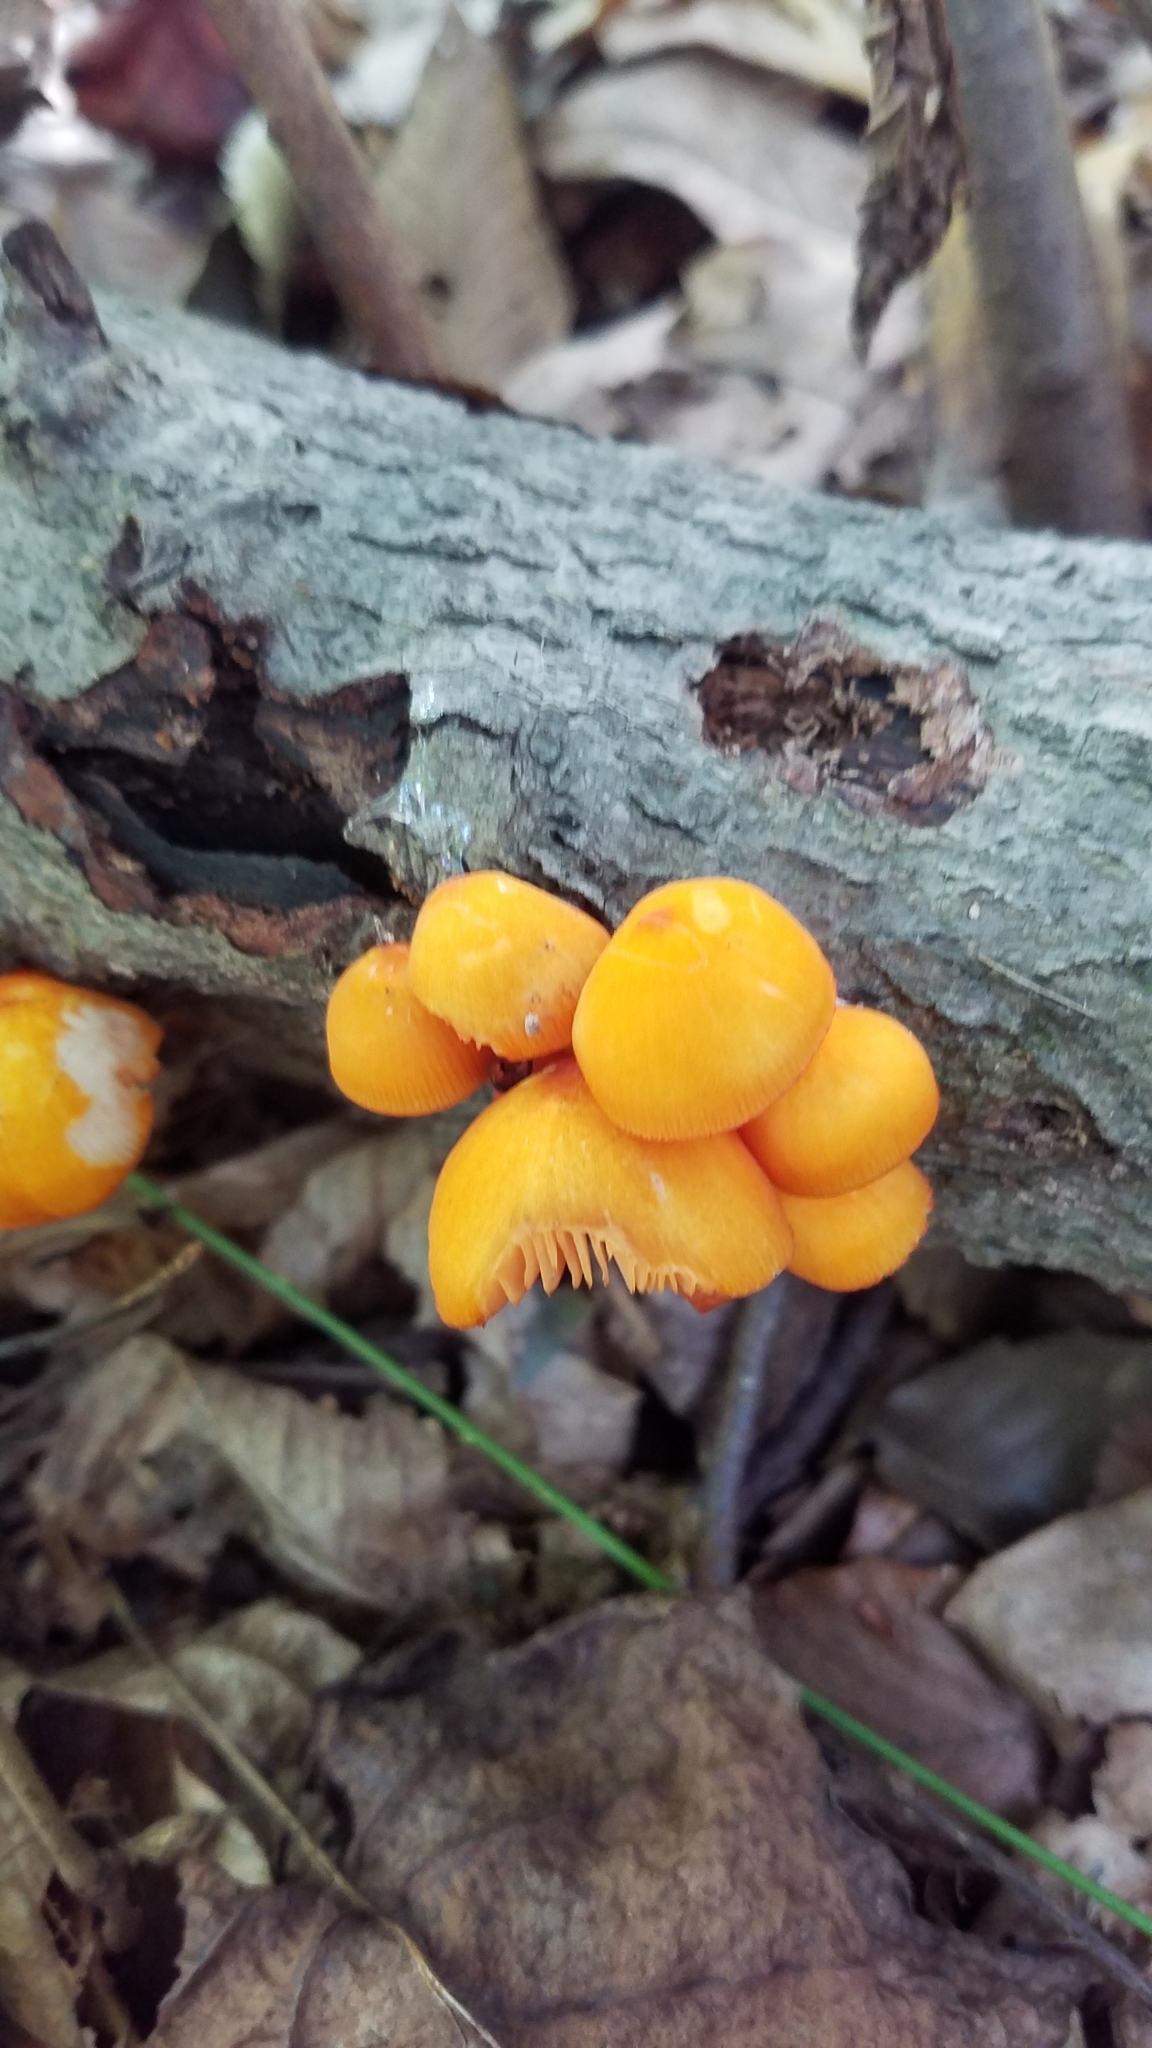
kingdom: Fungi
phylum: Basidiomycota
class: Agaricomycetes
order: Agaricales
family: Mycenaceae
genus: Mycena
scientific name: Mycena leaiana
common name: Orange mycena
